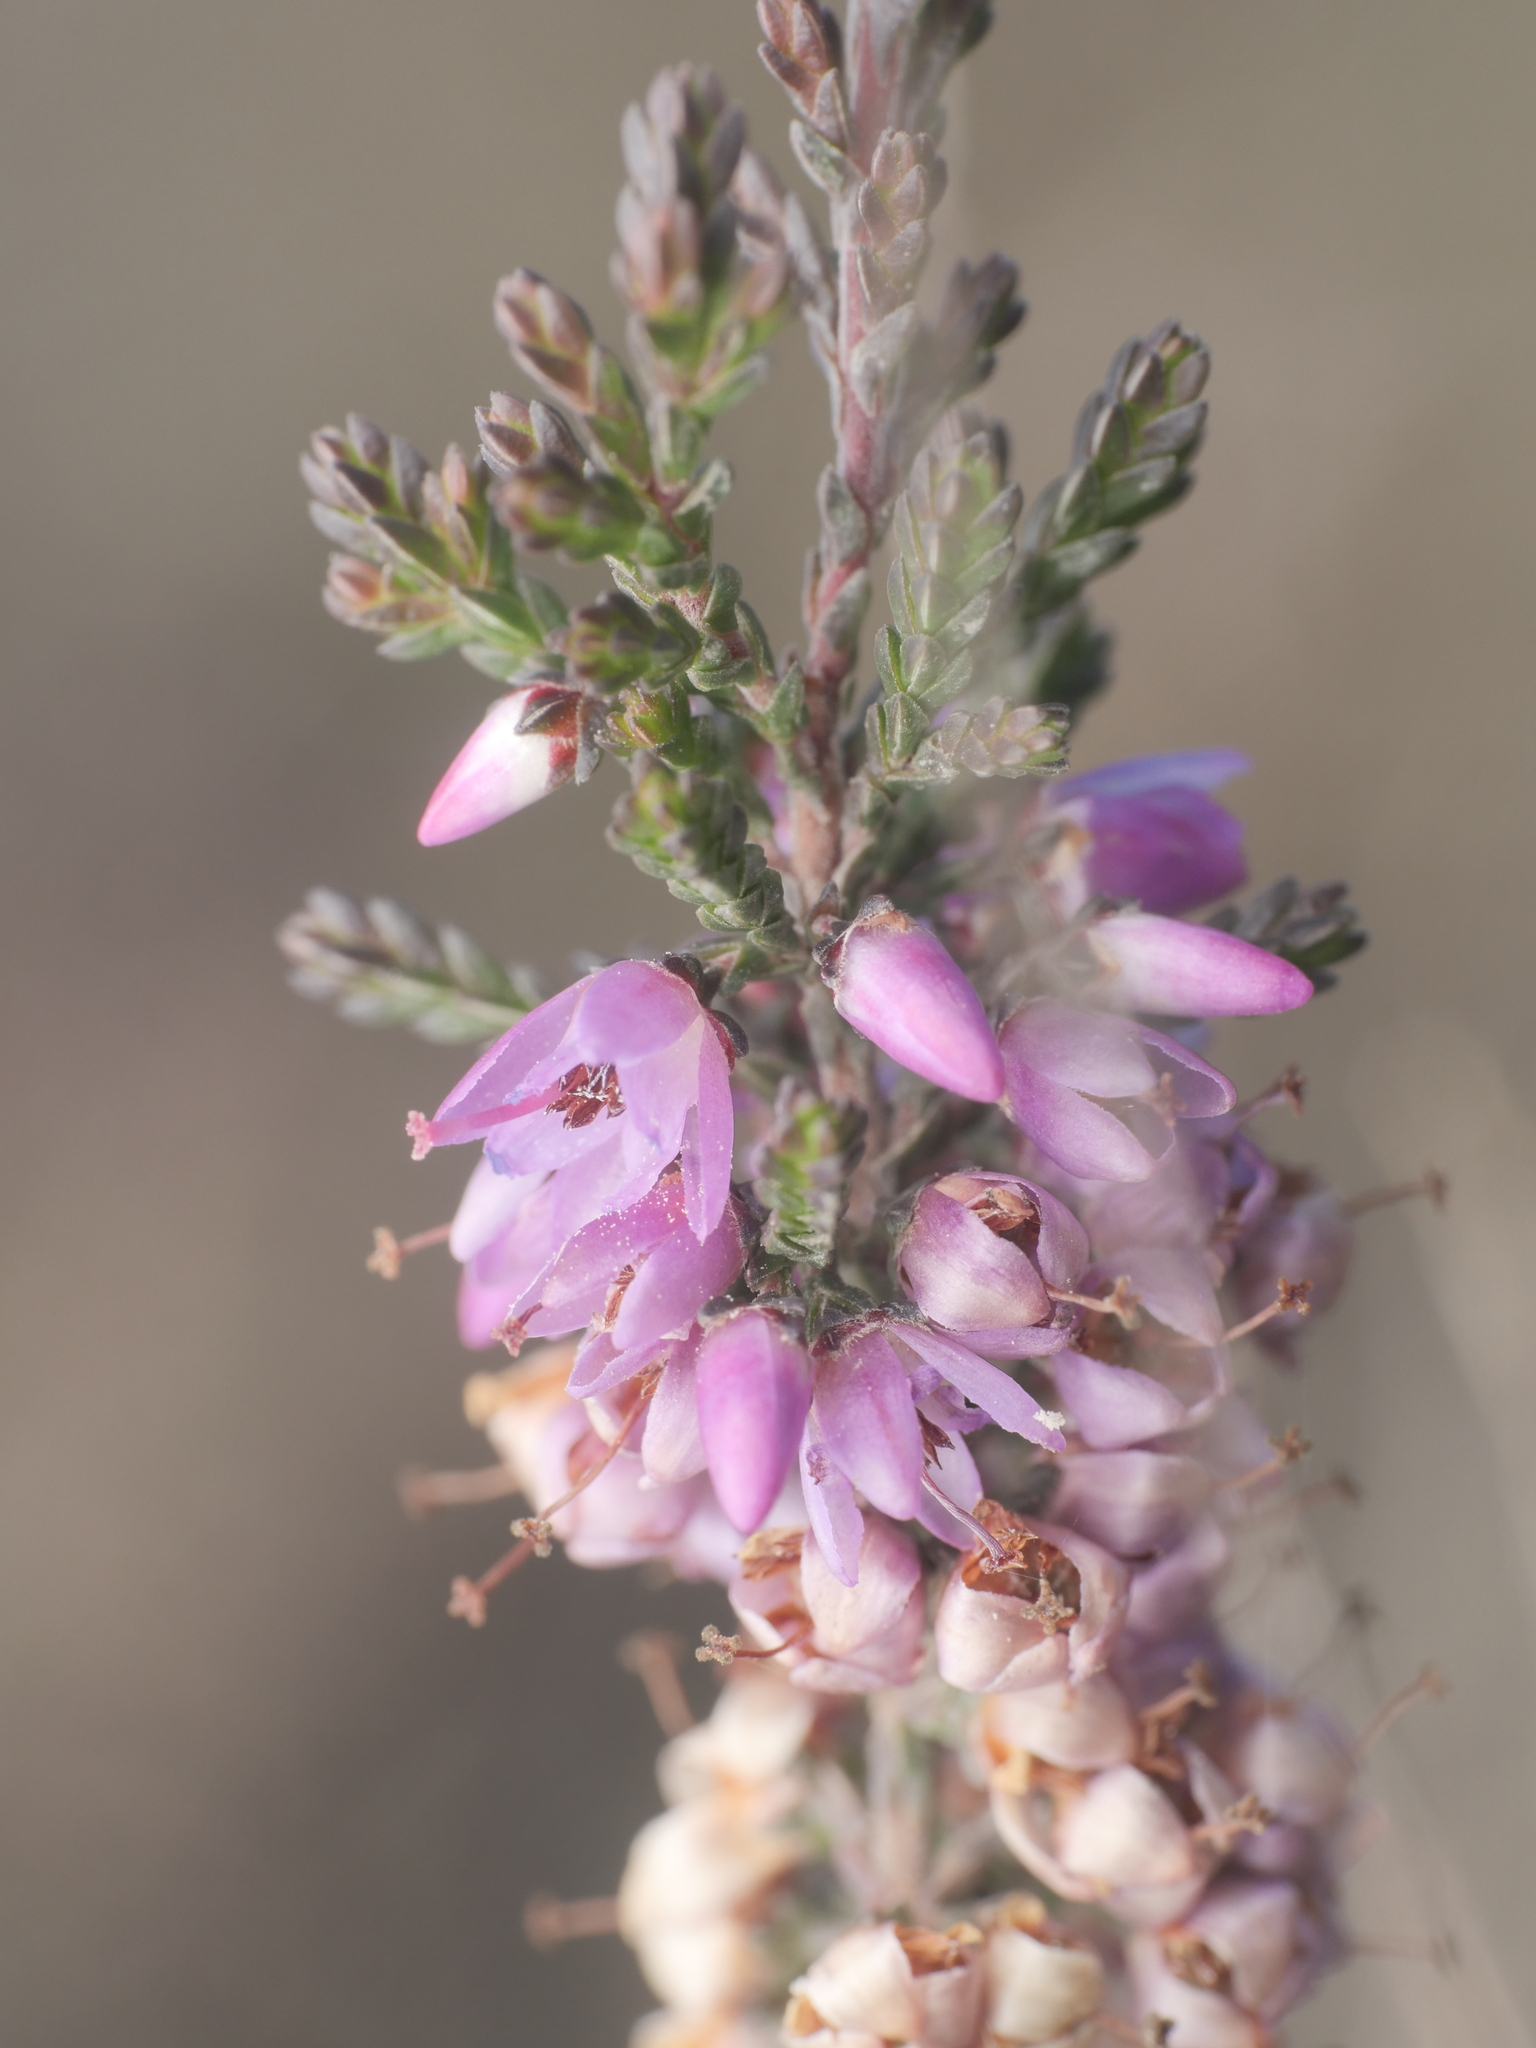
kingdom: Plantae
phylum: Tracheophyta
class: Magnoliopsida
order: Ericales
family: Ericaceae
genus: Calluna
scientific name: Calluna vulgaris
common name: Heather
